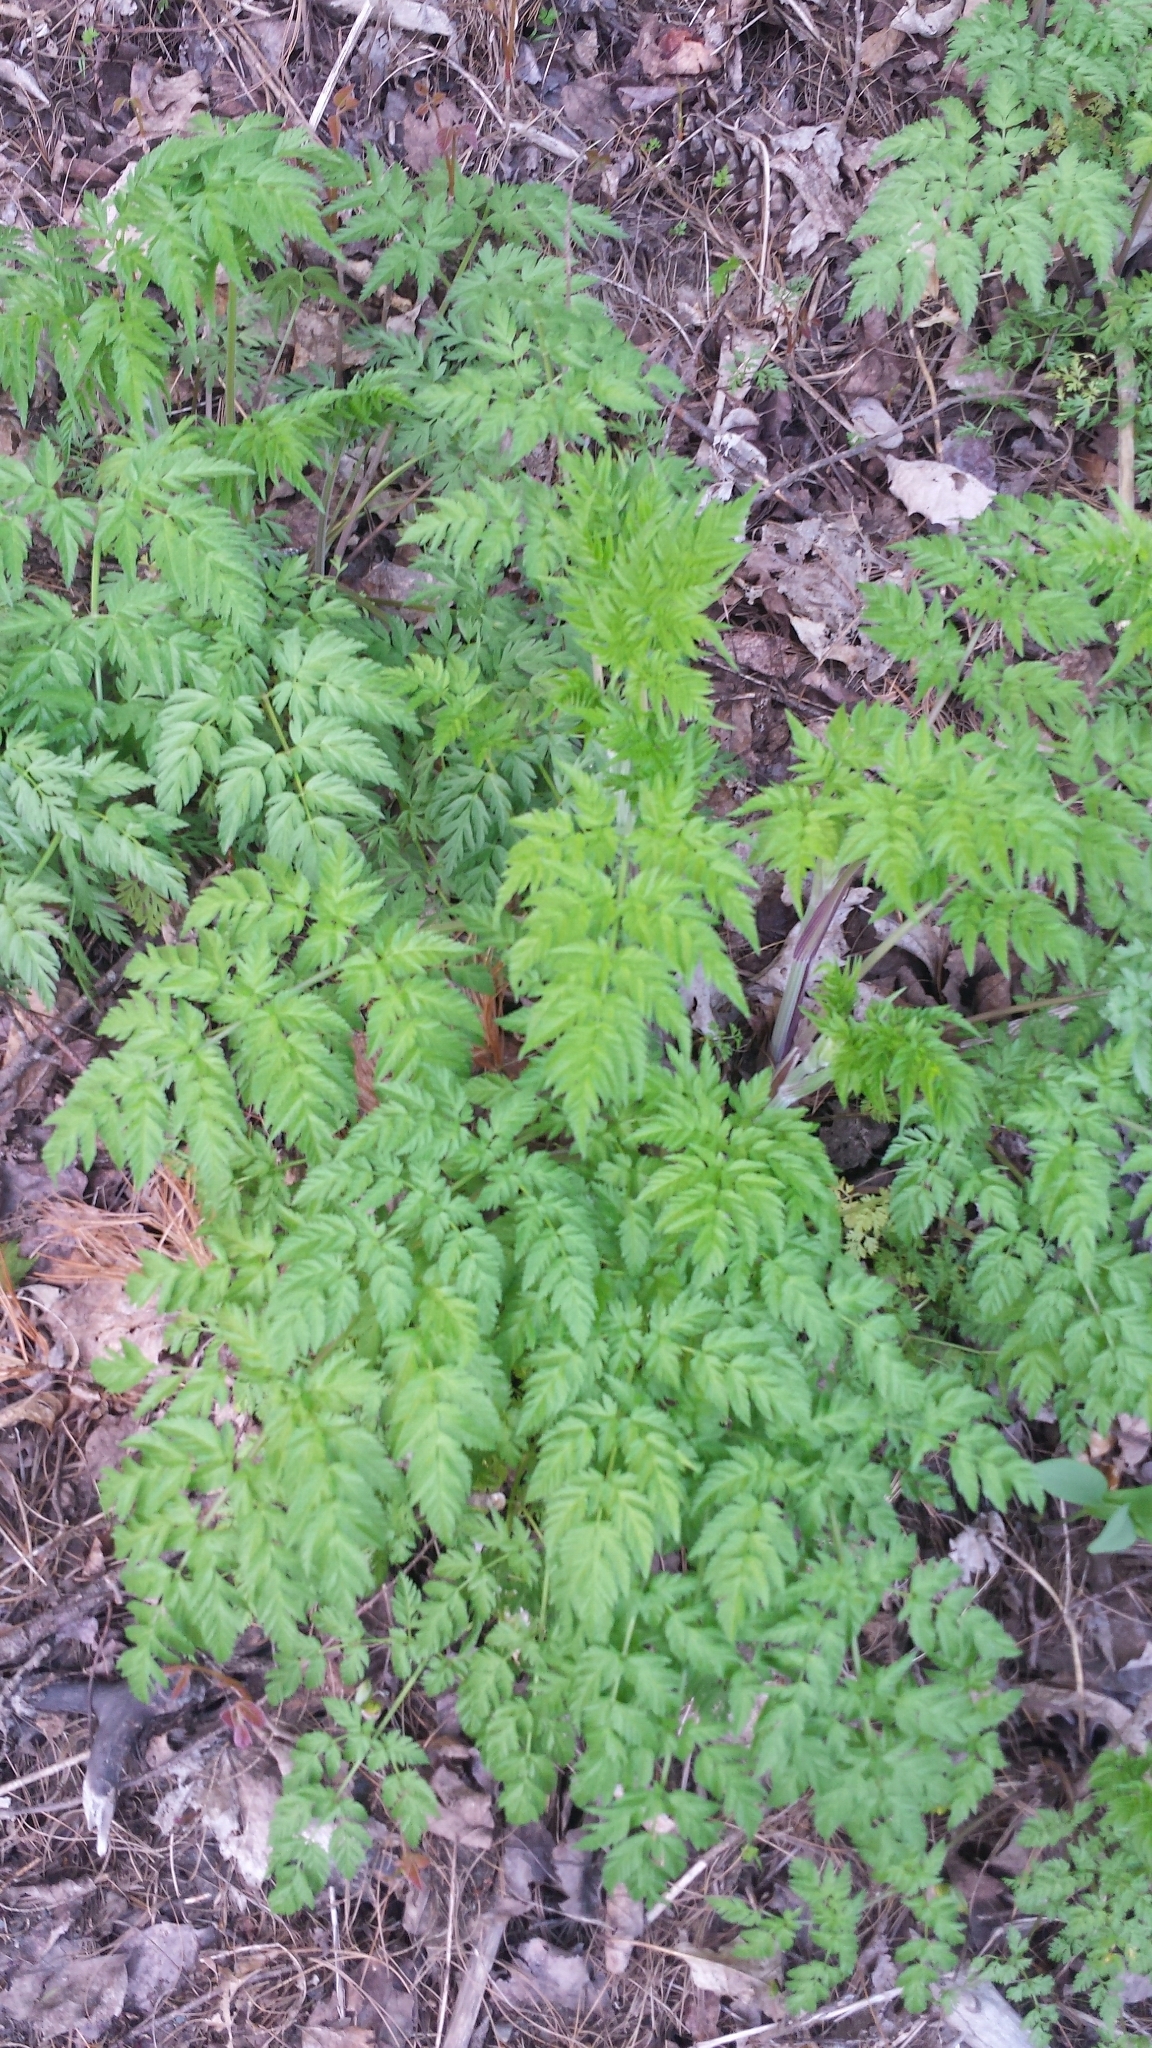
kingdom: Plantae
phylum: Tracheophyta
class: Magnoliopsida
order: Apiales
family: Apiaceae
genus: Anthriscus
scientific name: Anthriscus sylvestris
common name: Cow parsley
